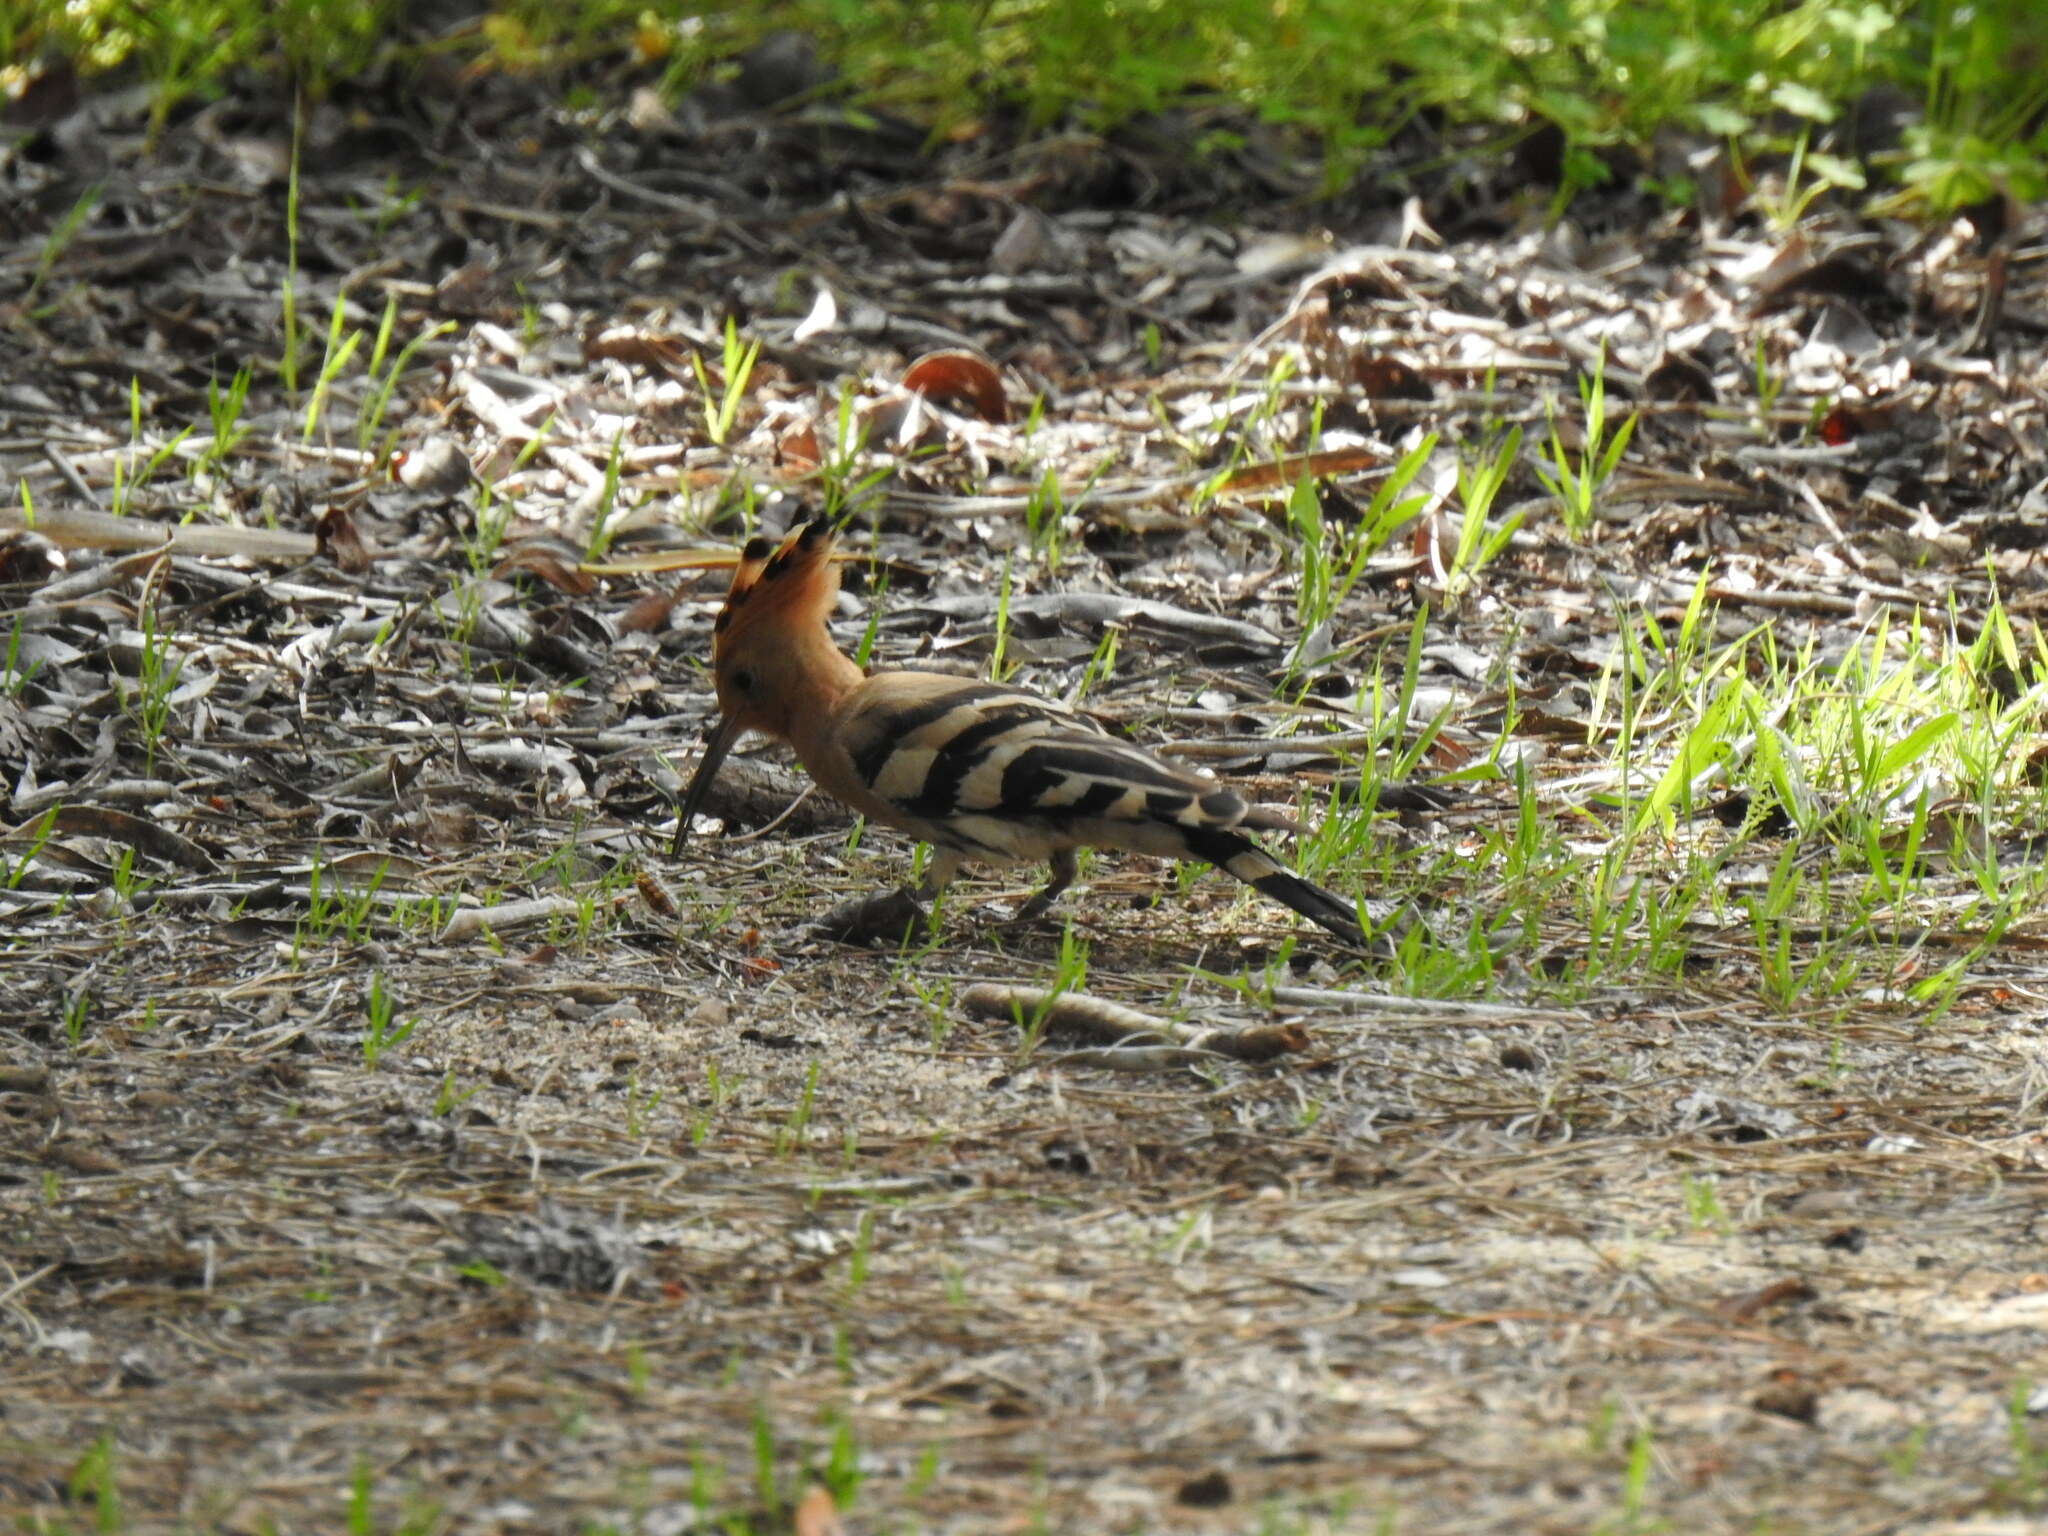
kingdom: Animalia
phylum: Chordata
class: Aves
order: Bucerotiformes
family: Upupidae
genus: Upupa
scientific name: Upupa epops
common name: Eurasian hoopoe
